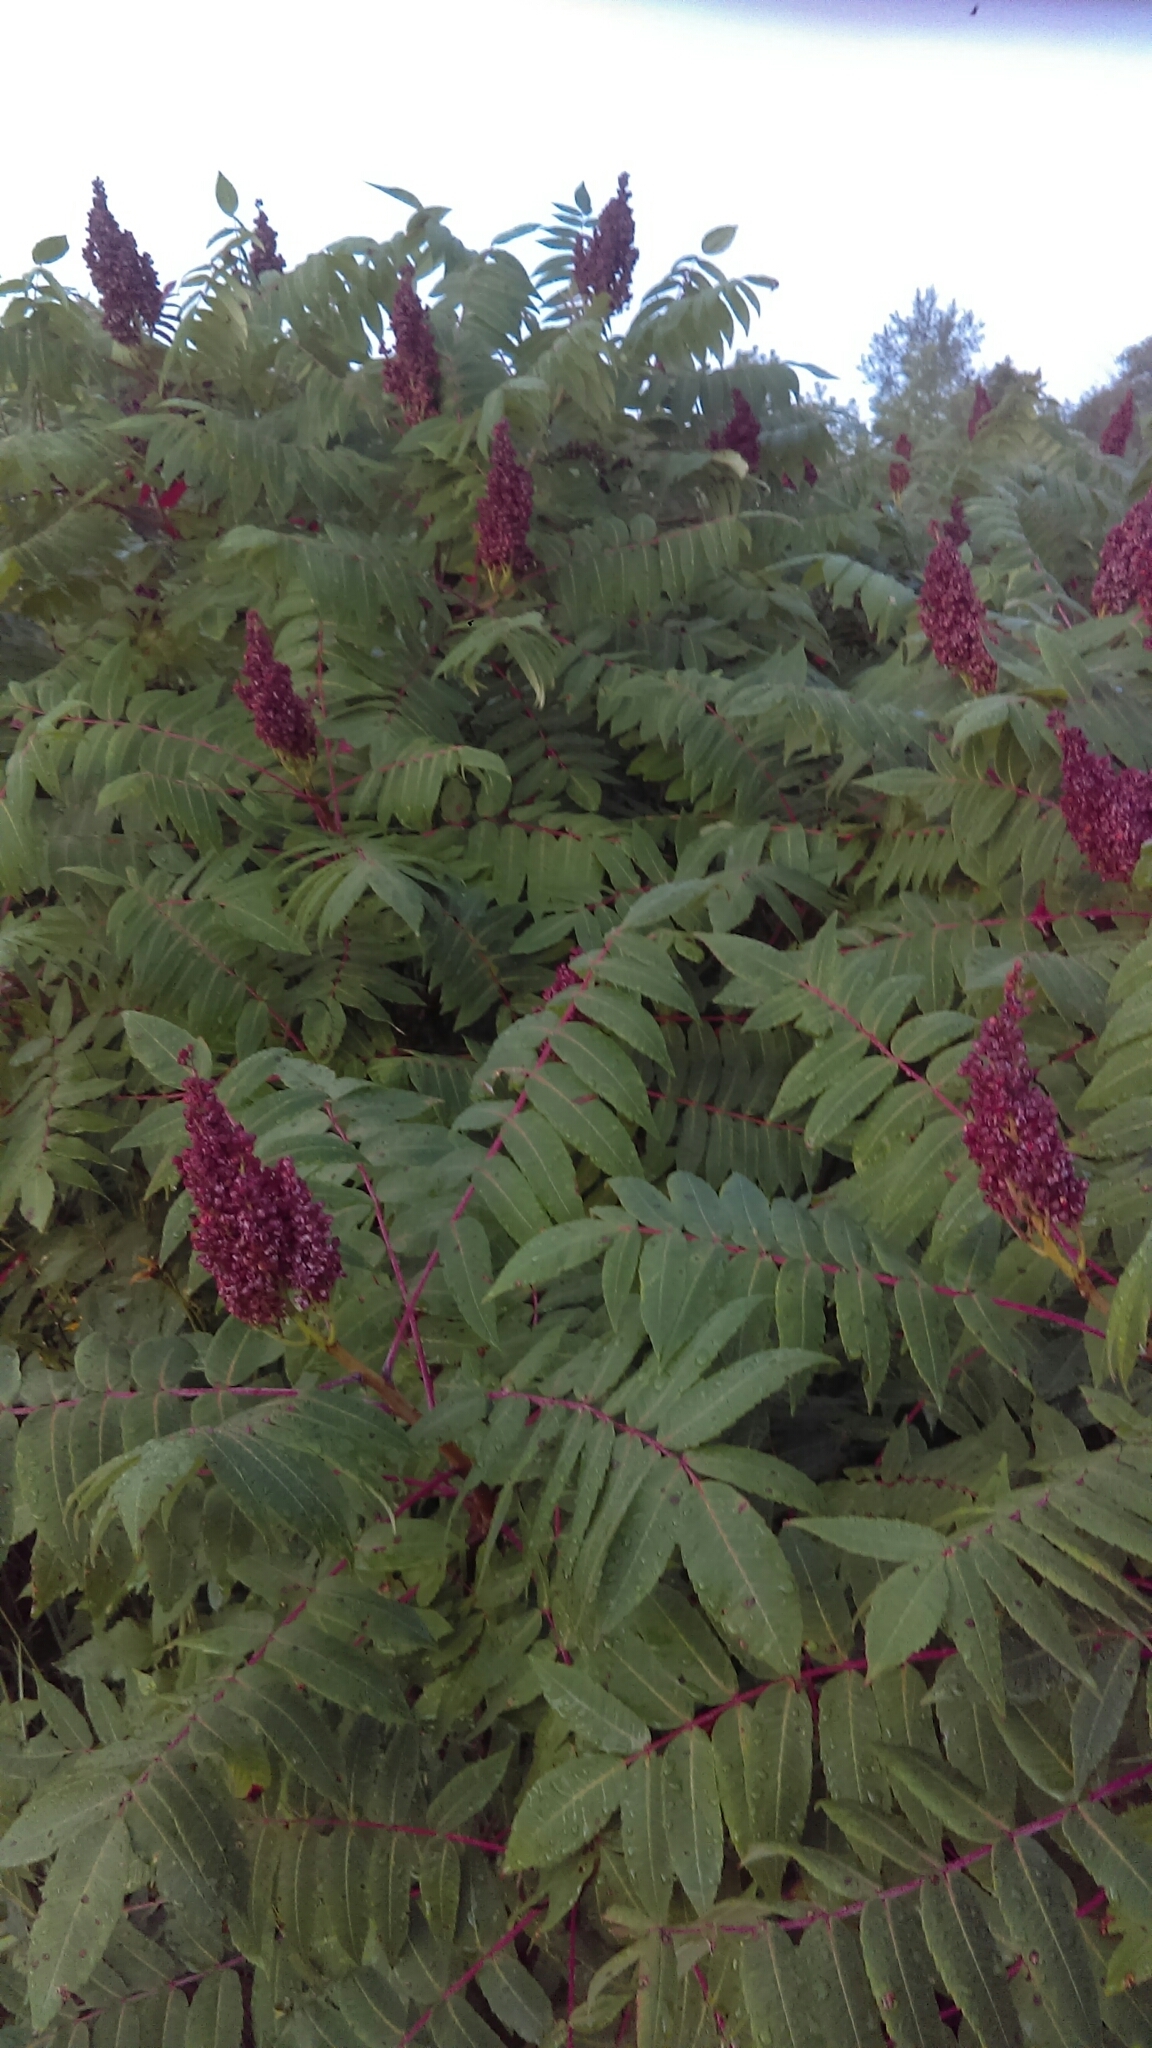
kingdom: Plantae
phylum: Tracheophyta
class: Magnoliopsida
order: Sapindales
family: Anacardiaceae
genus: Rhus
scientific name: Rhus glabra
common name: Scarlet sumac
